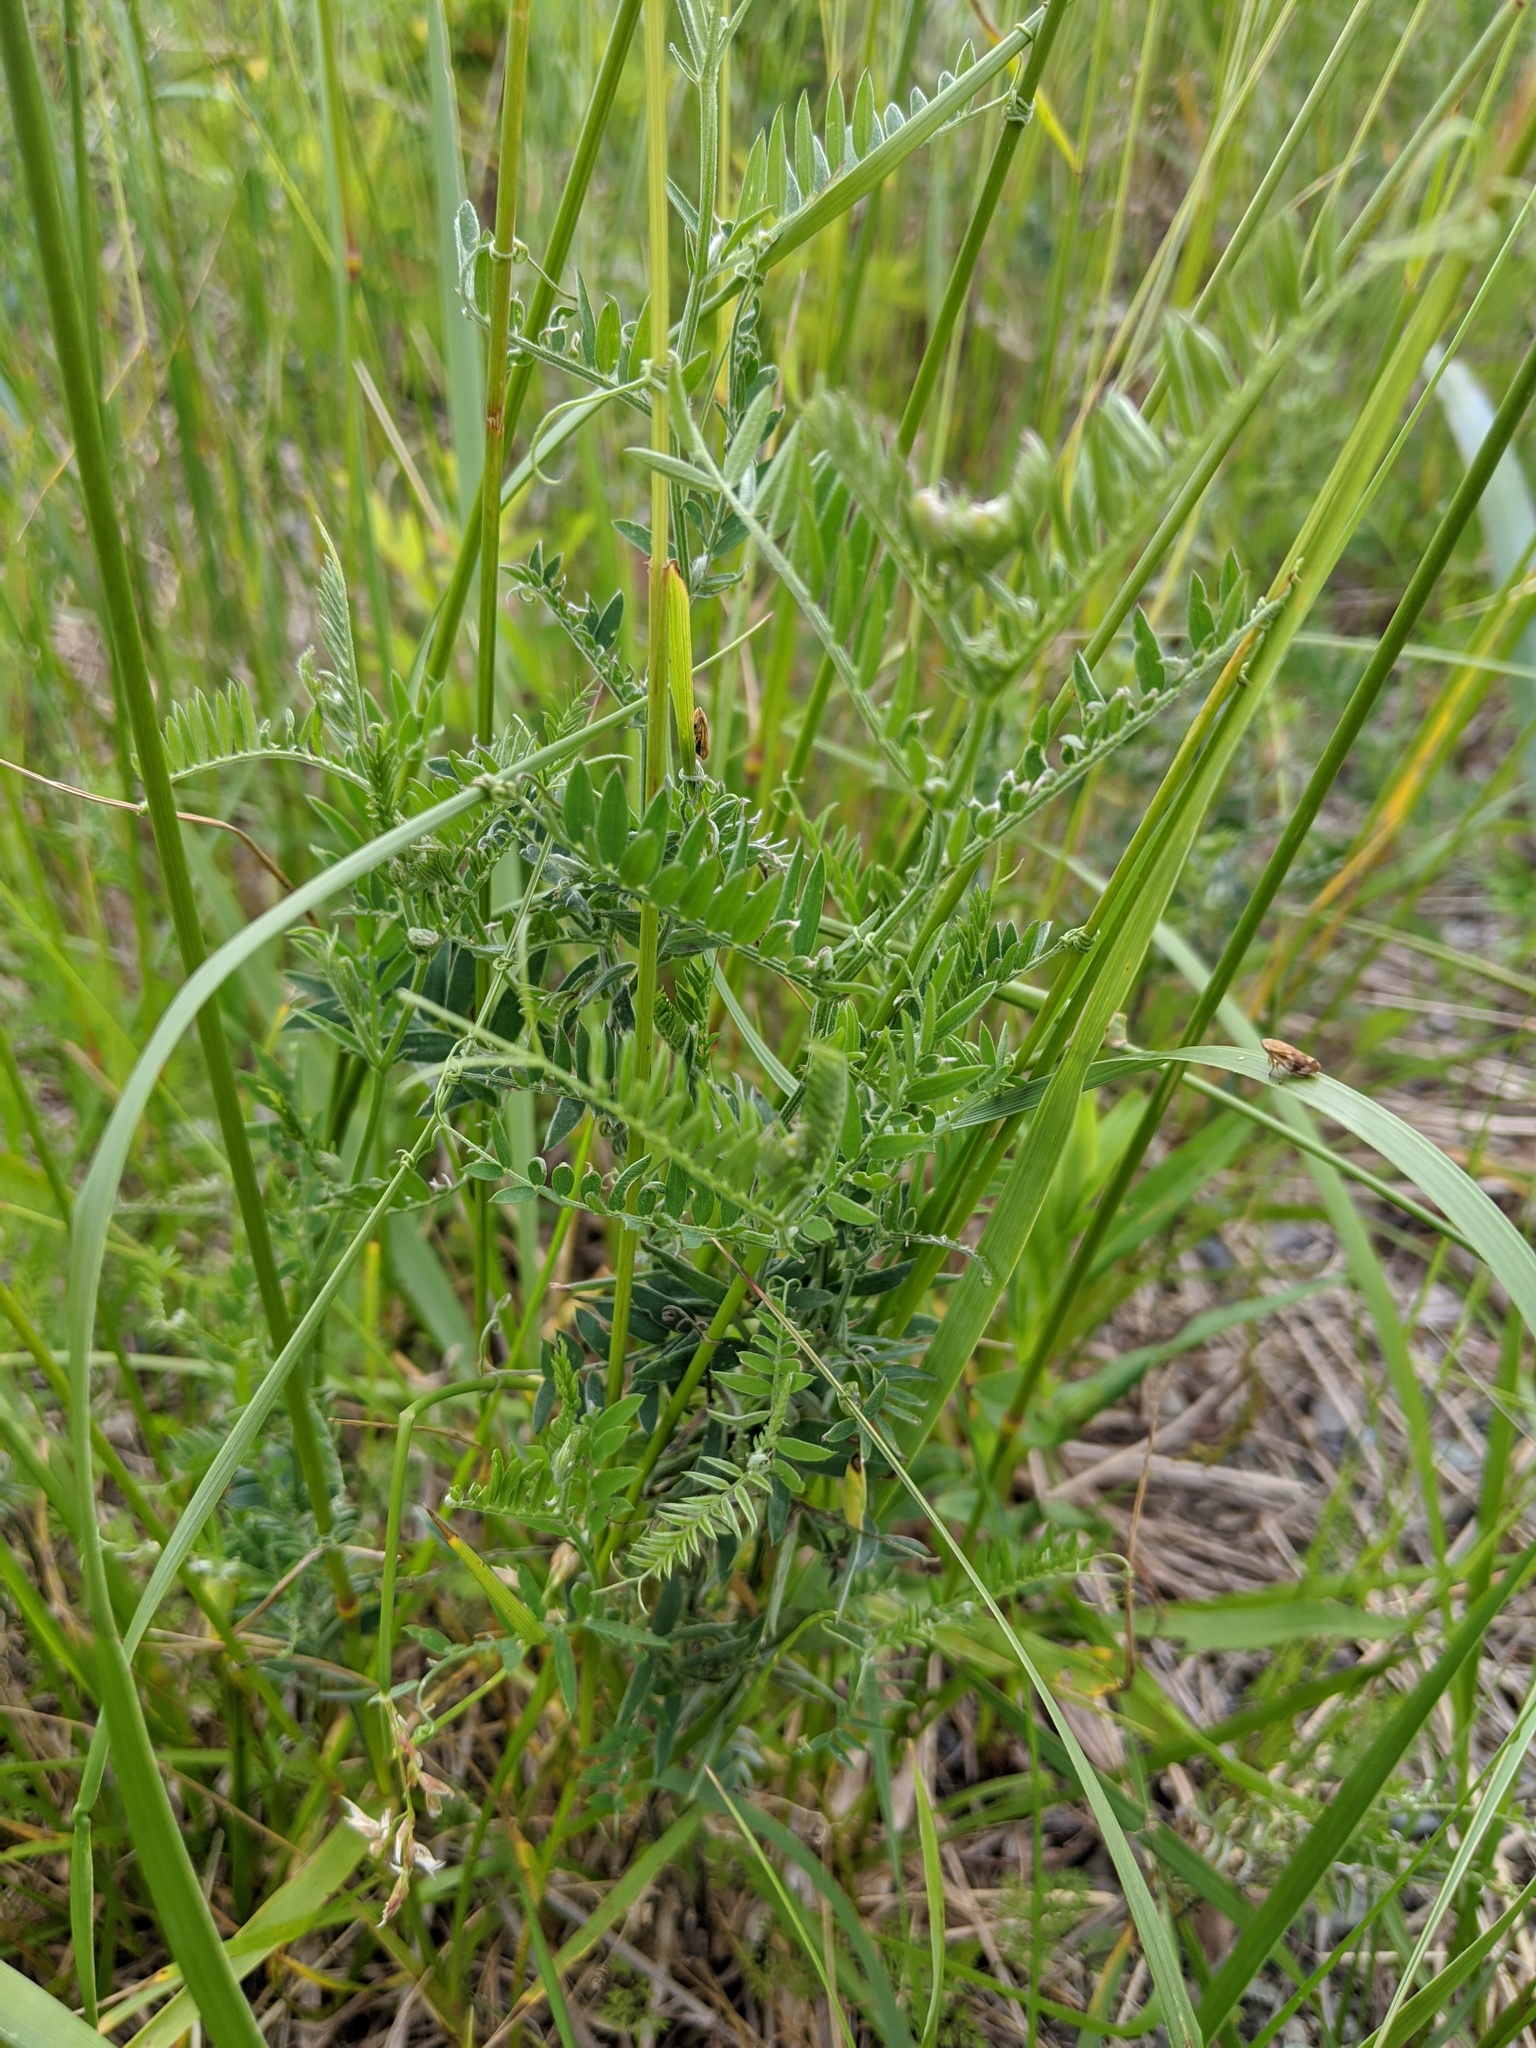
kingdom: Plantae
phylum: Tracheophyta
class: Magnoliopsida
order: Fabales
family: Fabaceae
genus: Vicia
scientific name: Vicia cracca
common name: Bird vetch
